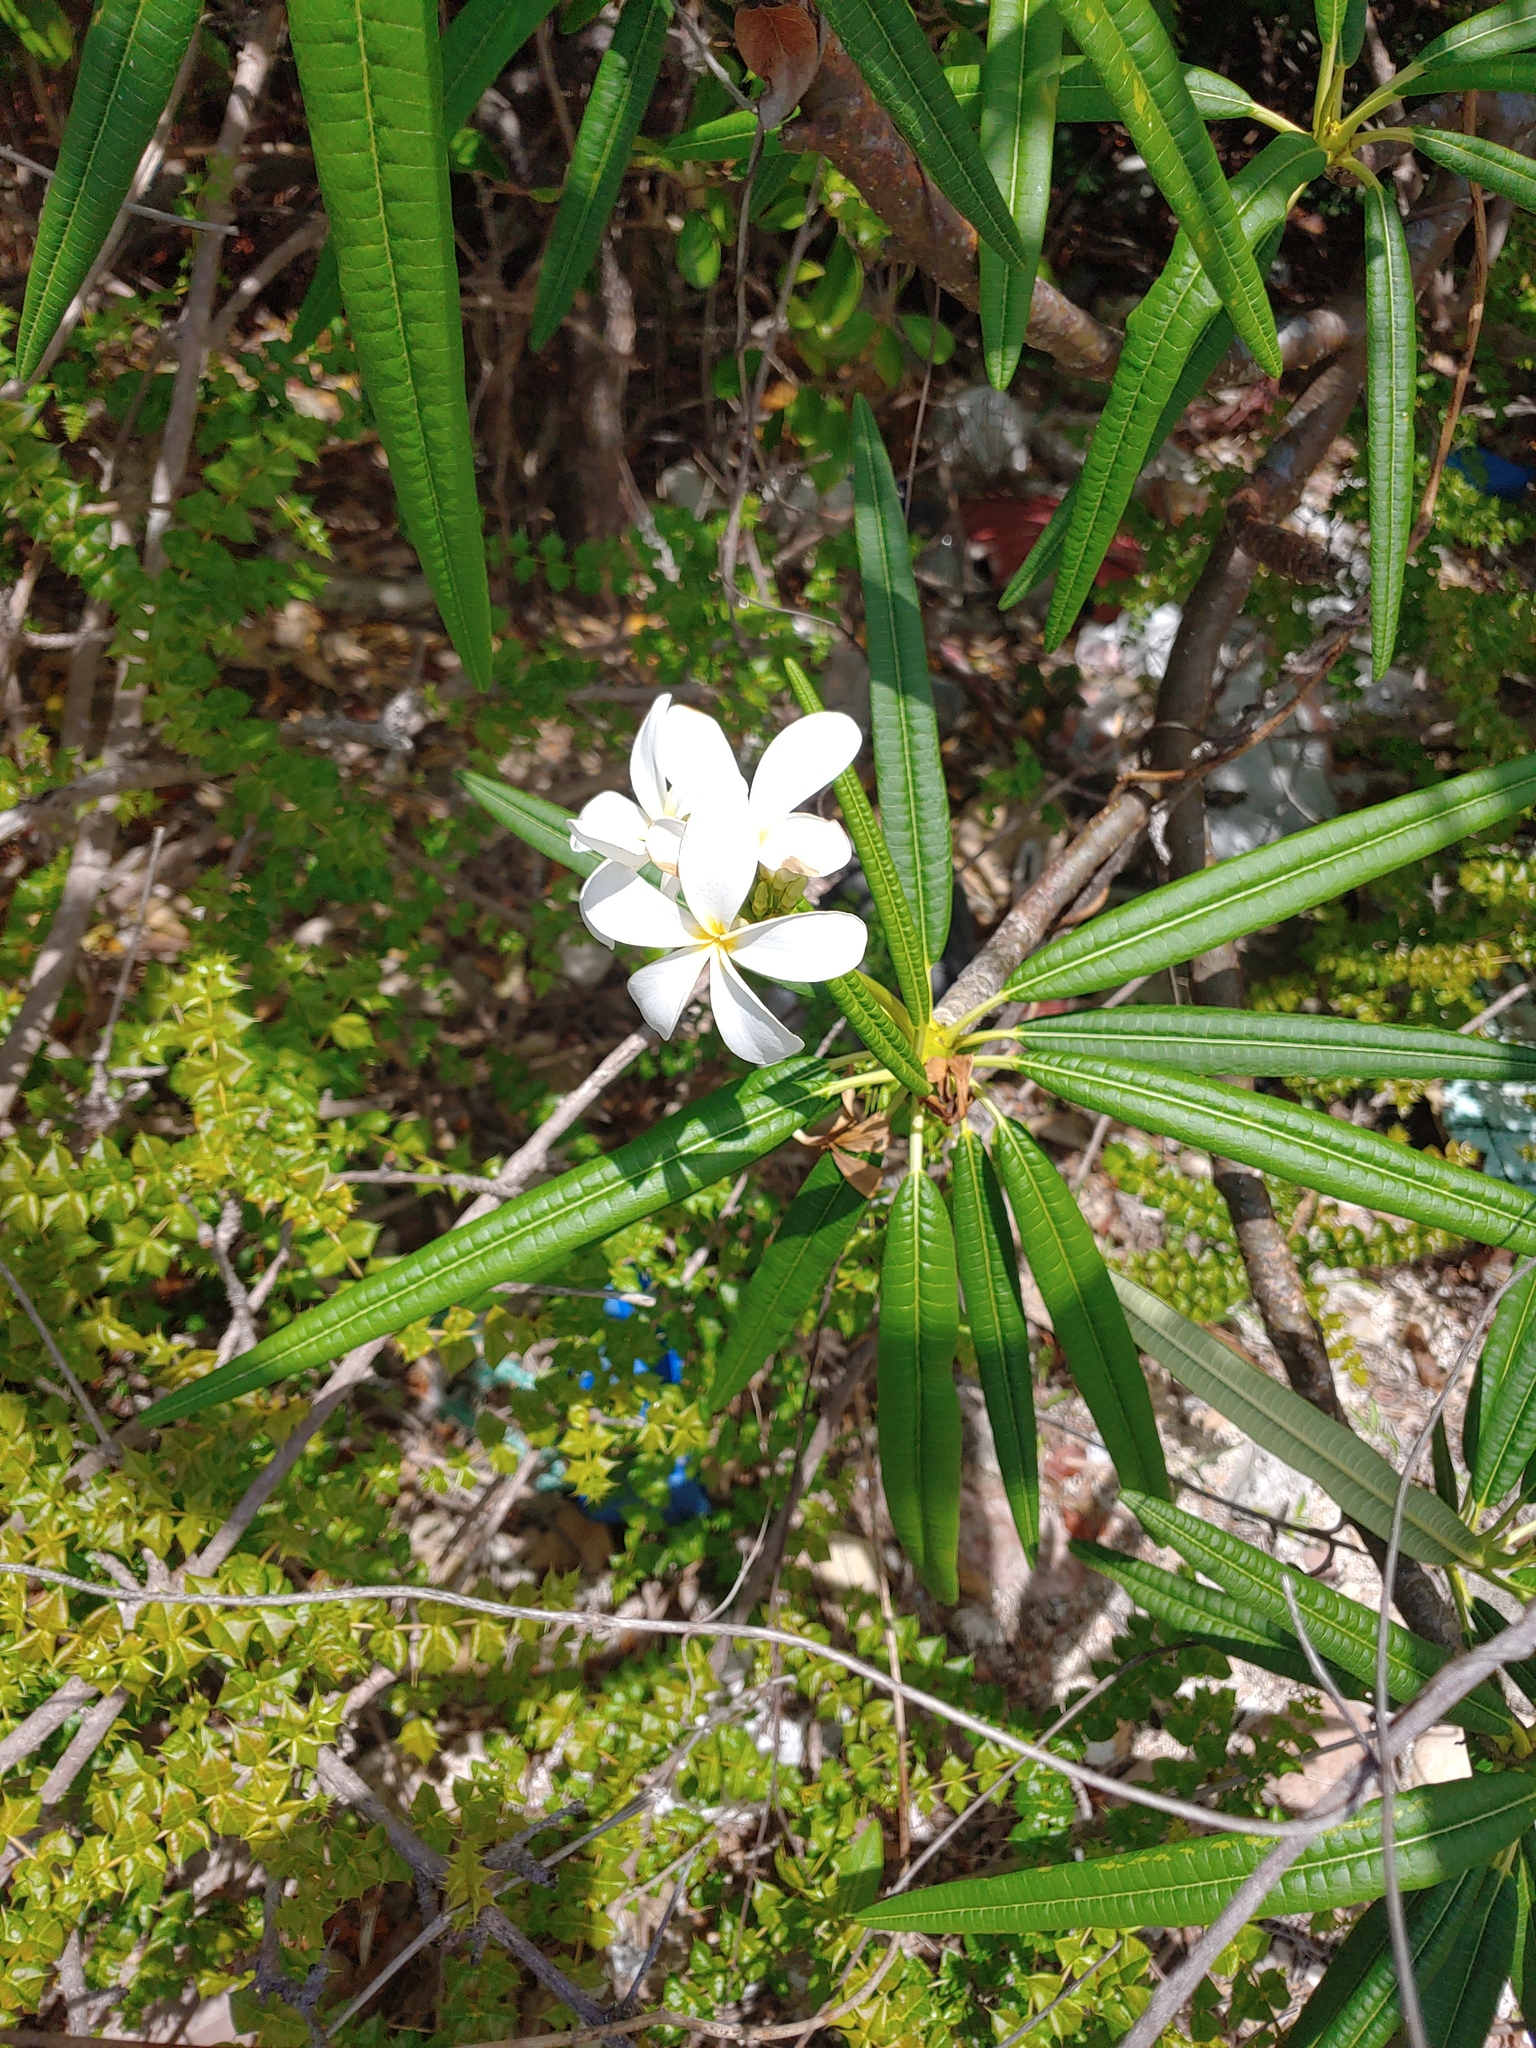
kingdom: Plantae
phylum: Tracheophyta
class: Magnoliopsida
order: Gentianales
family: Apocynaceae
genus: Plumeria
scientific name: Plumeria alba
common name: Wild frangipani
